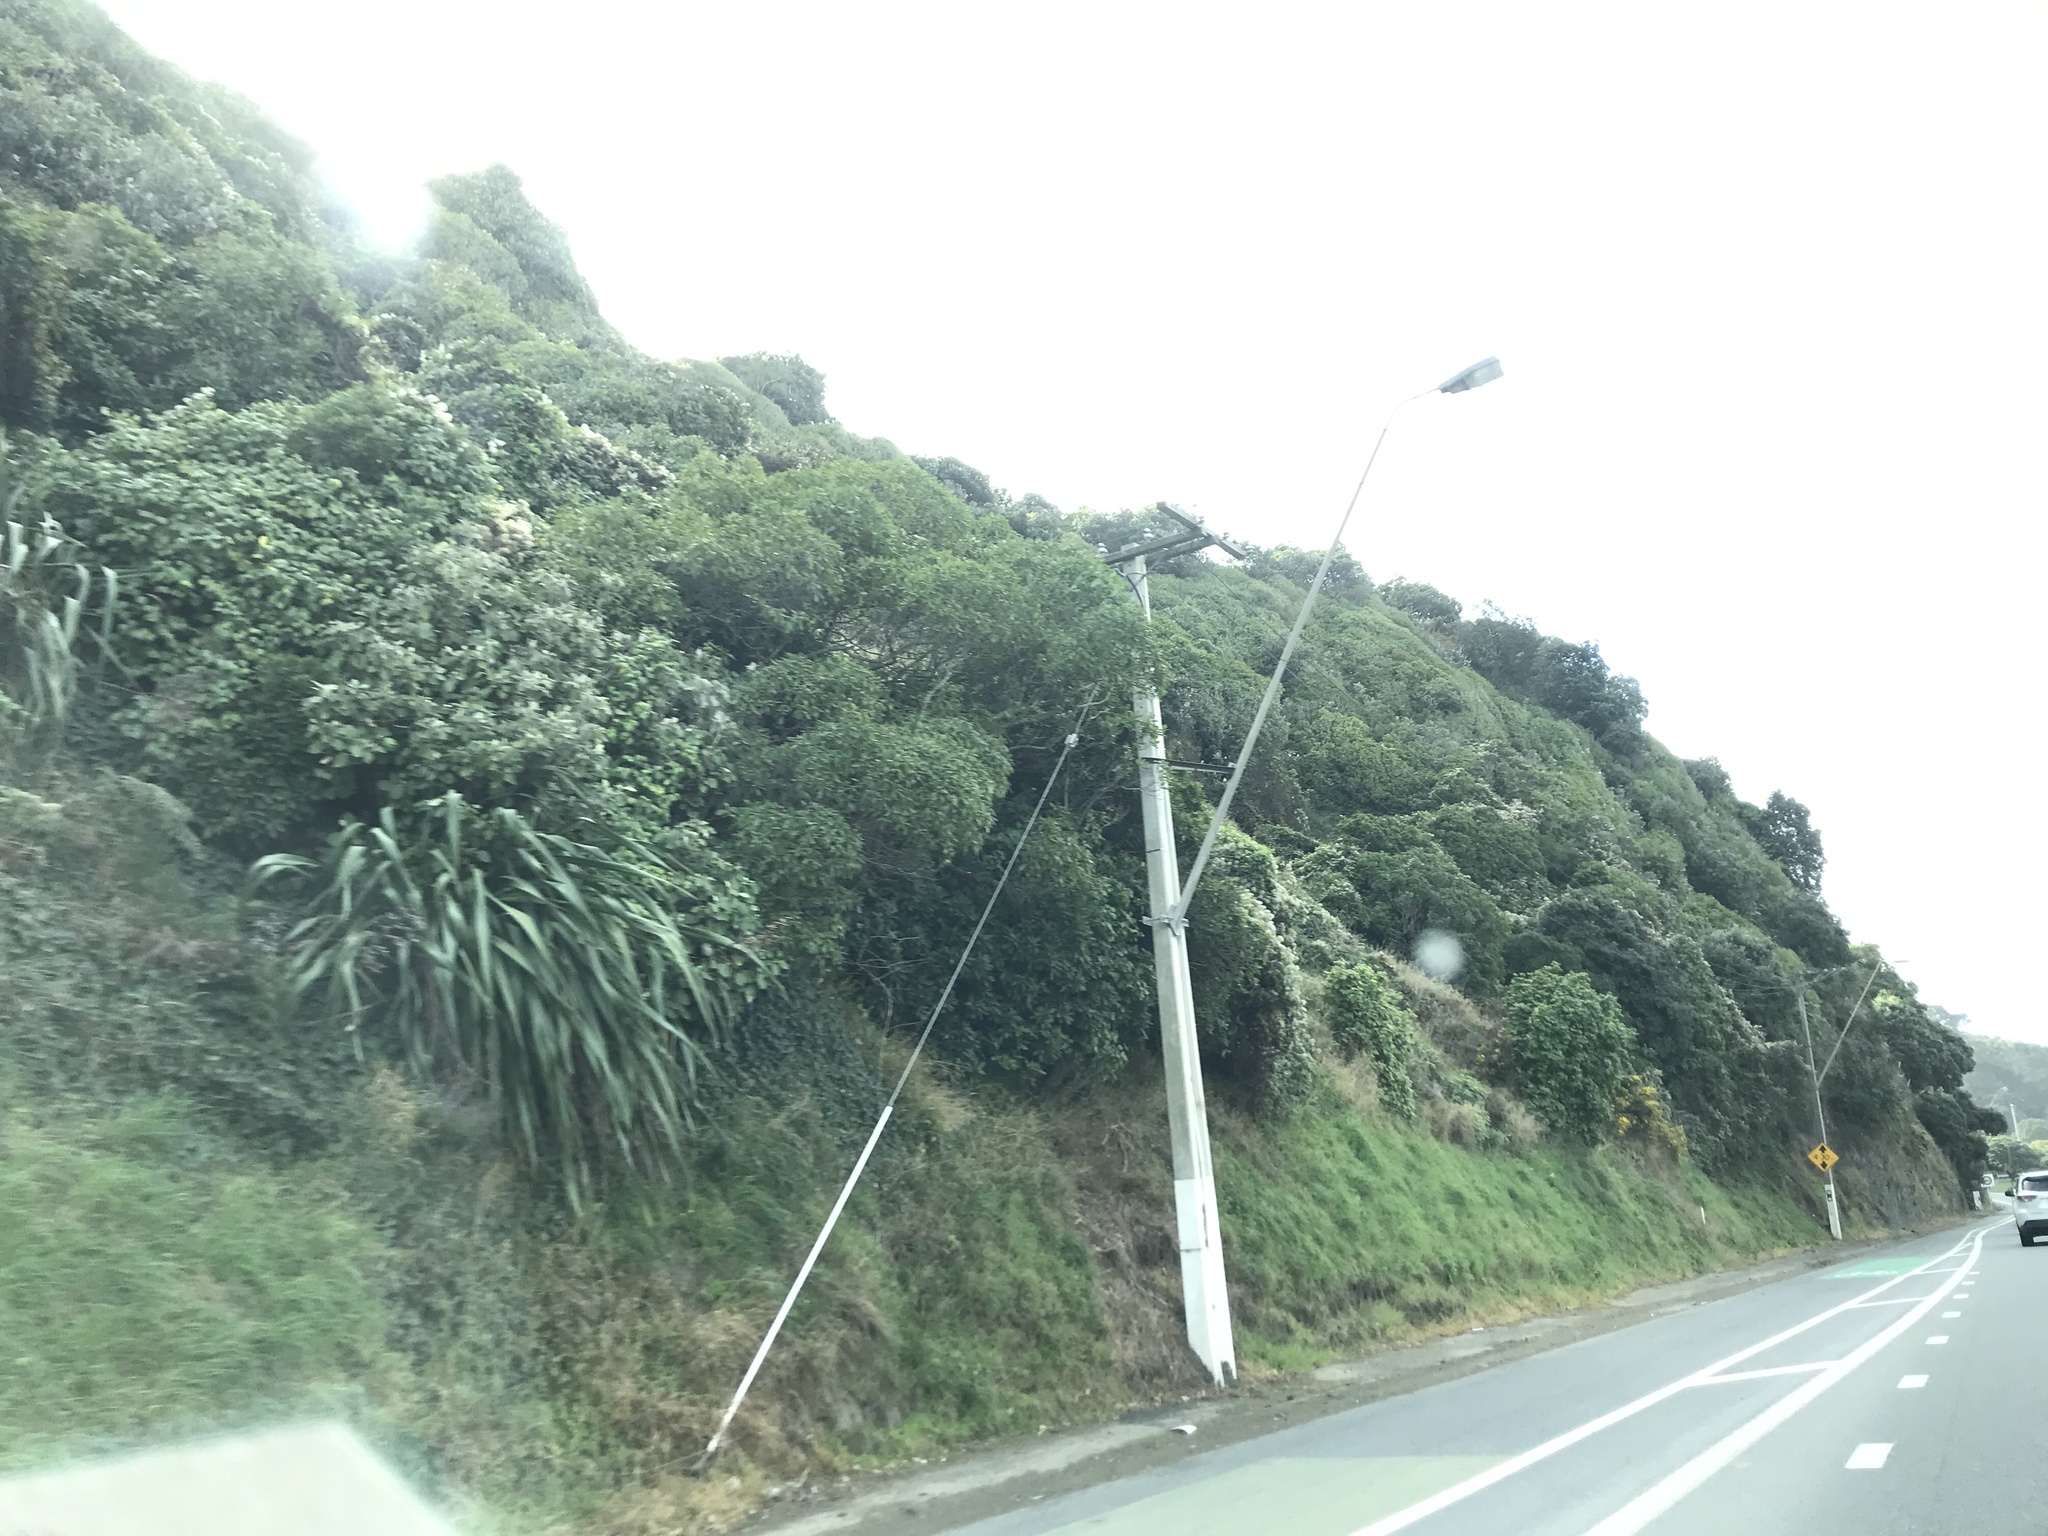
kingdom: Plantae
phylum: Tracheophyta
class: Liliopsida
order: Asparagales
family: Asphodelaceae
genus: Phormium
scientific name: Phormium colensoi
